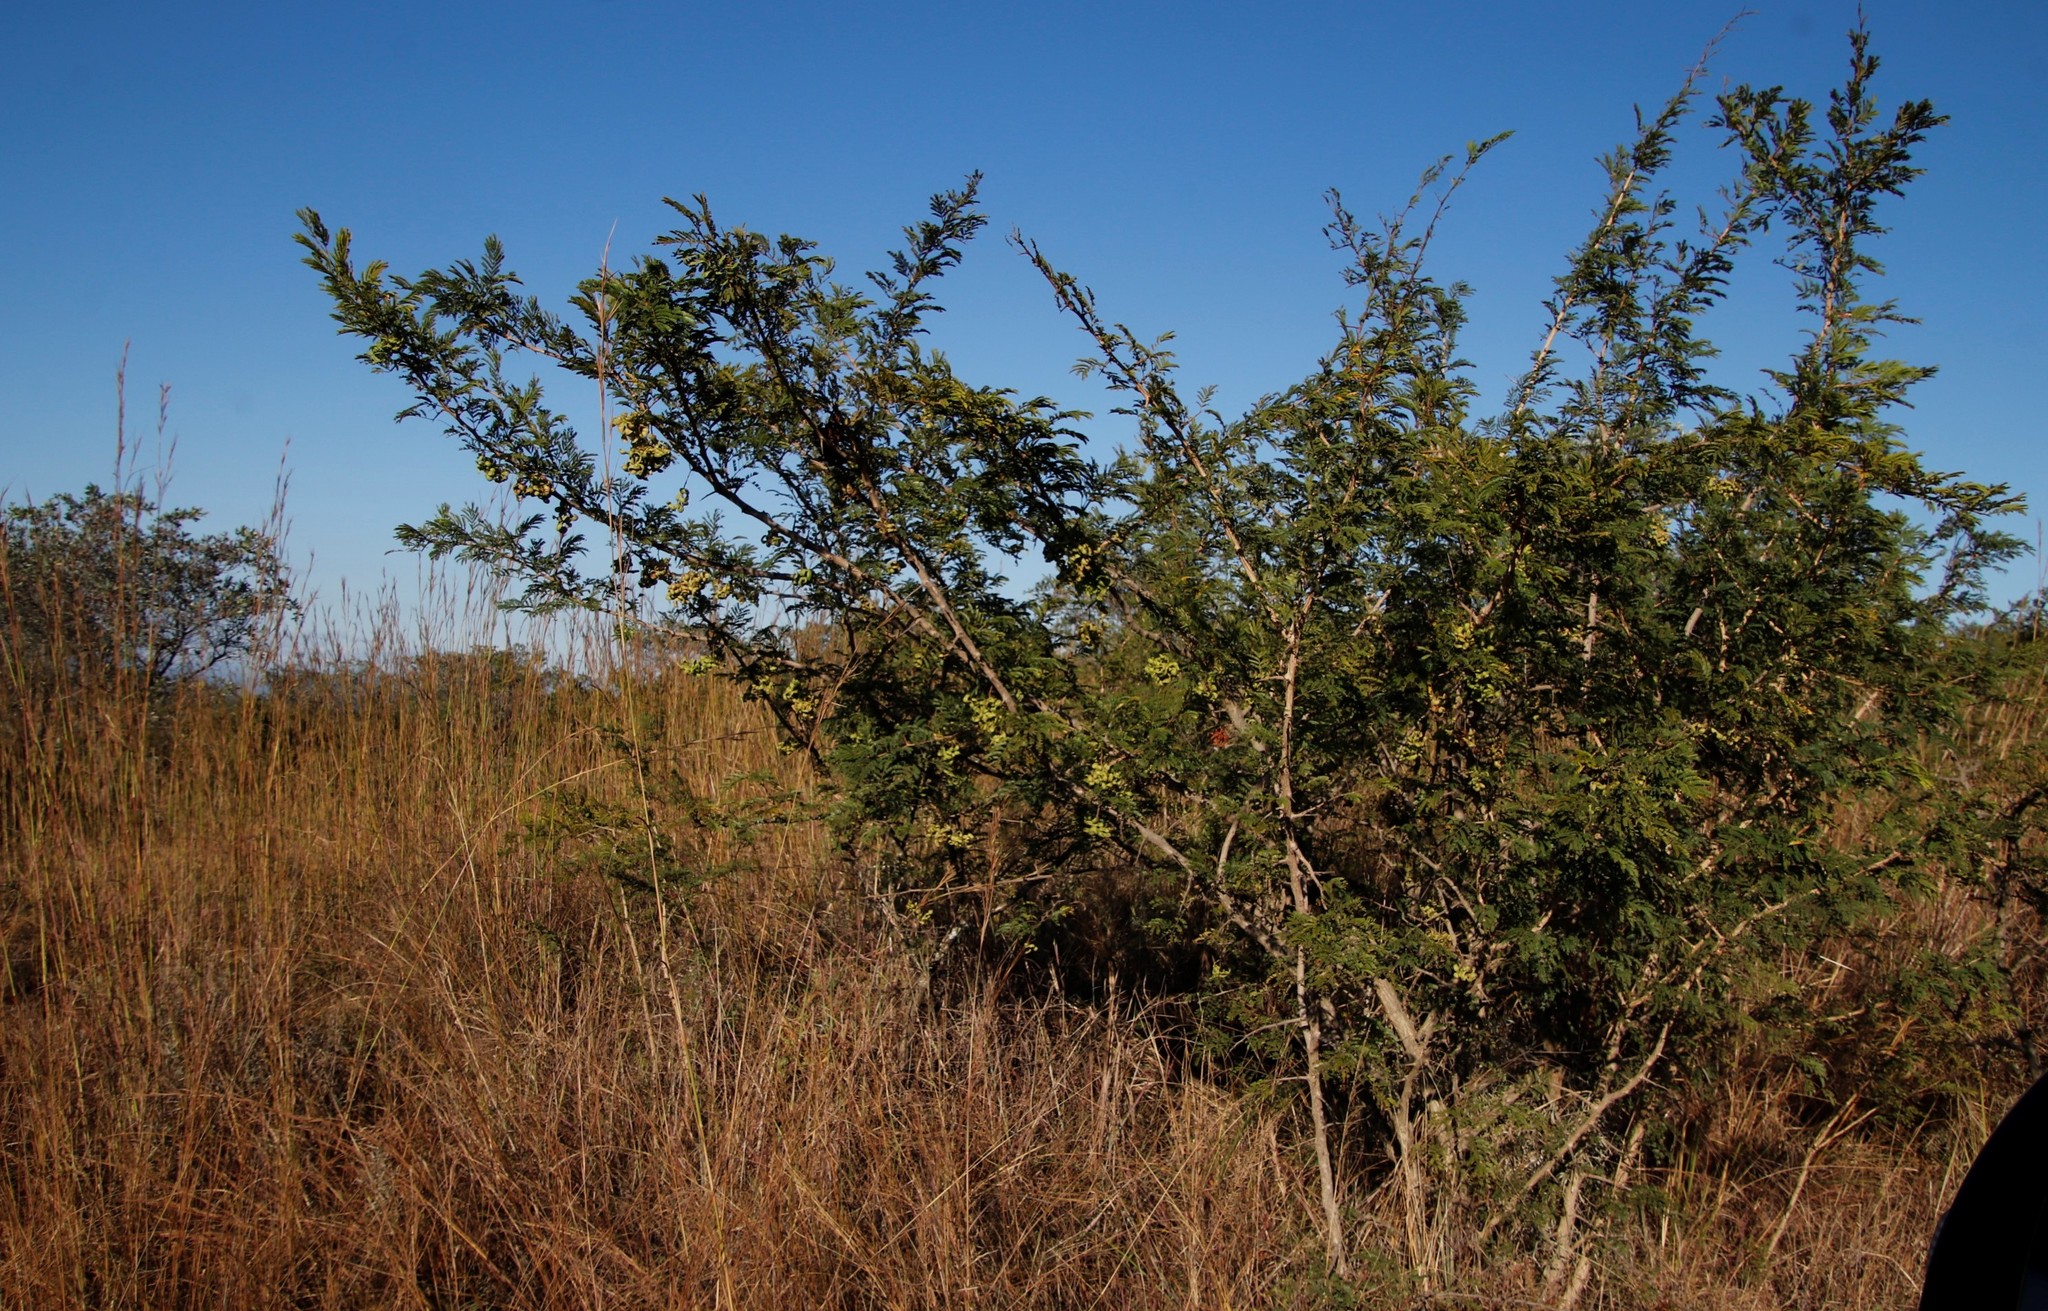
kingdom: Plantae
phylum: Tracheophyta
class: Magnoliopsida
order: Fabales
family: Fabaceae
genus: Dichrostachys
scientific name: Dichrostachys cinerea
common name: Sicklebush
